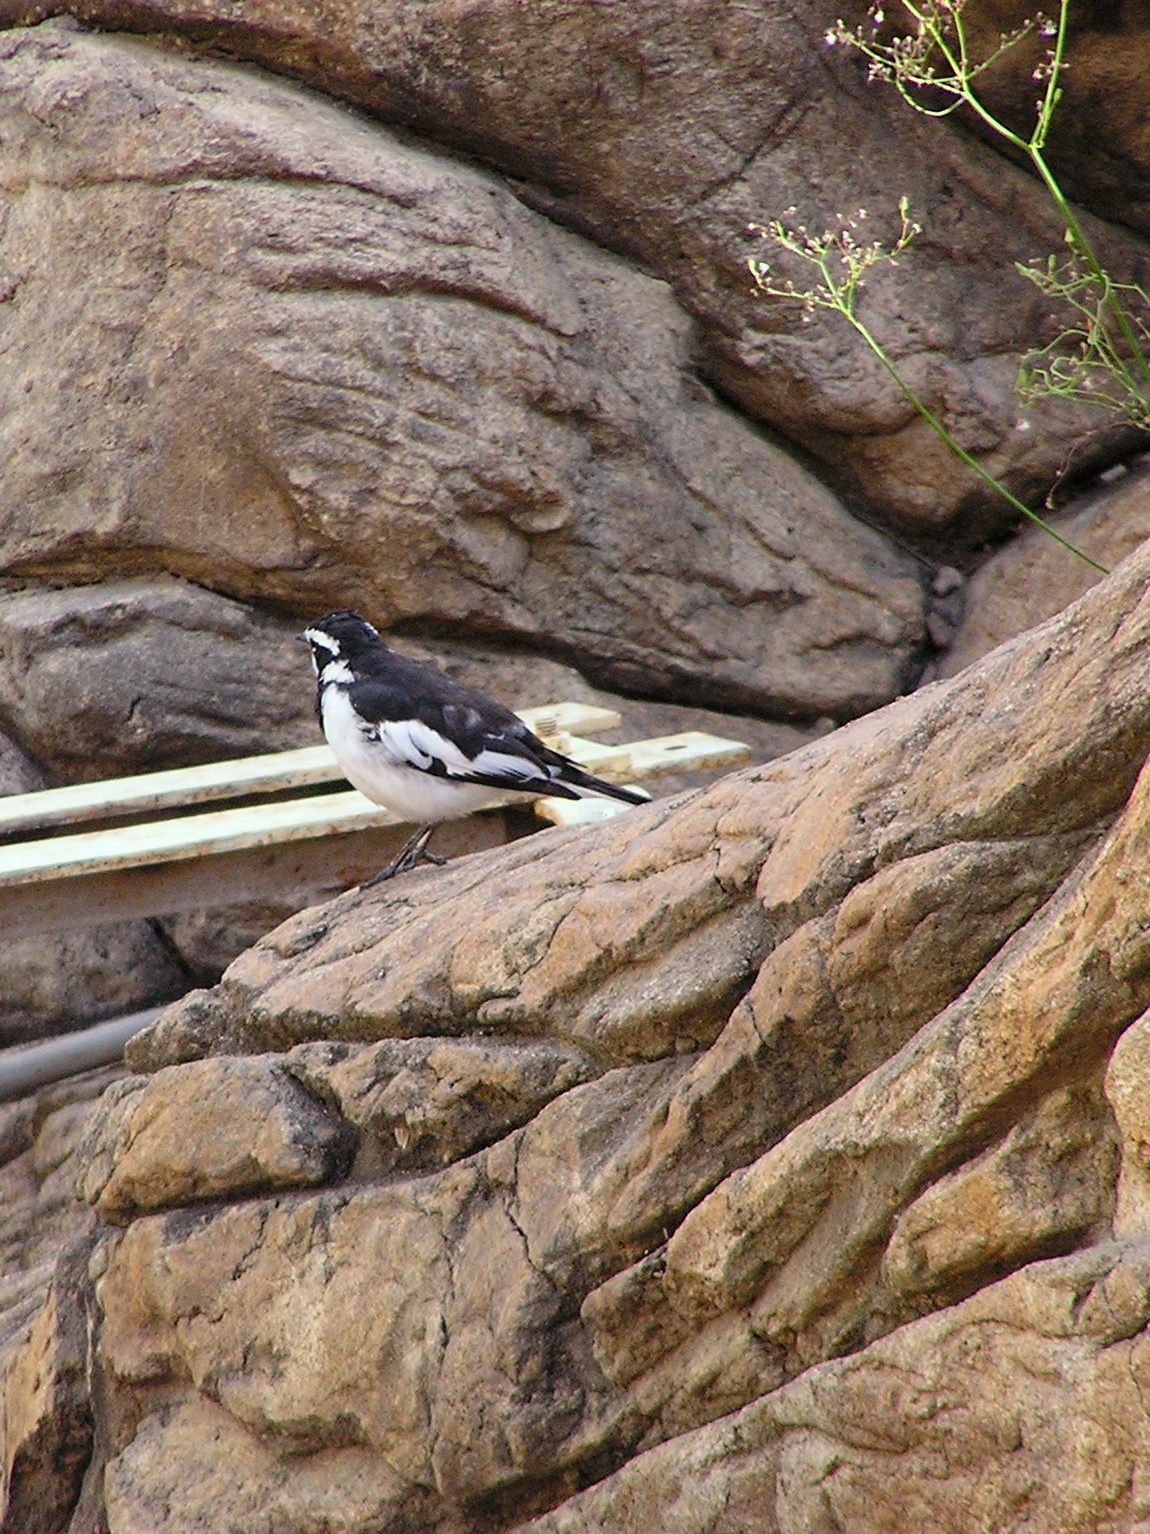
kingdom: Animalia
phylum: Chordata
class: Aves
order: Passeriformes
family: Motacillidae
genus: Motacilla
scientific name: Motacilla aguimp
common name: African pied wagtail
